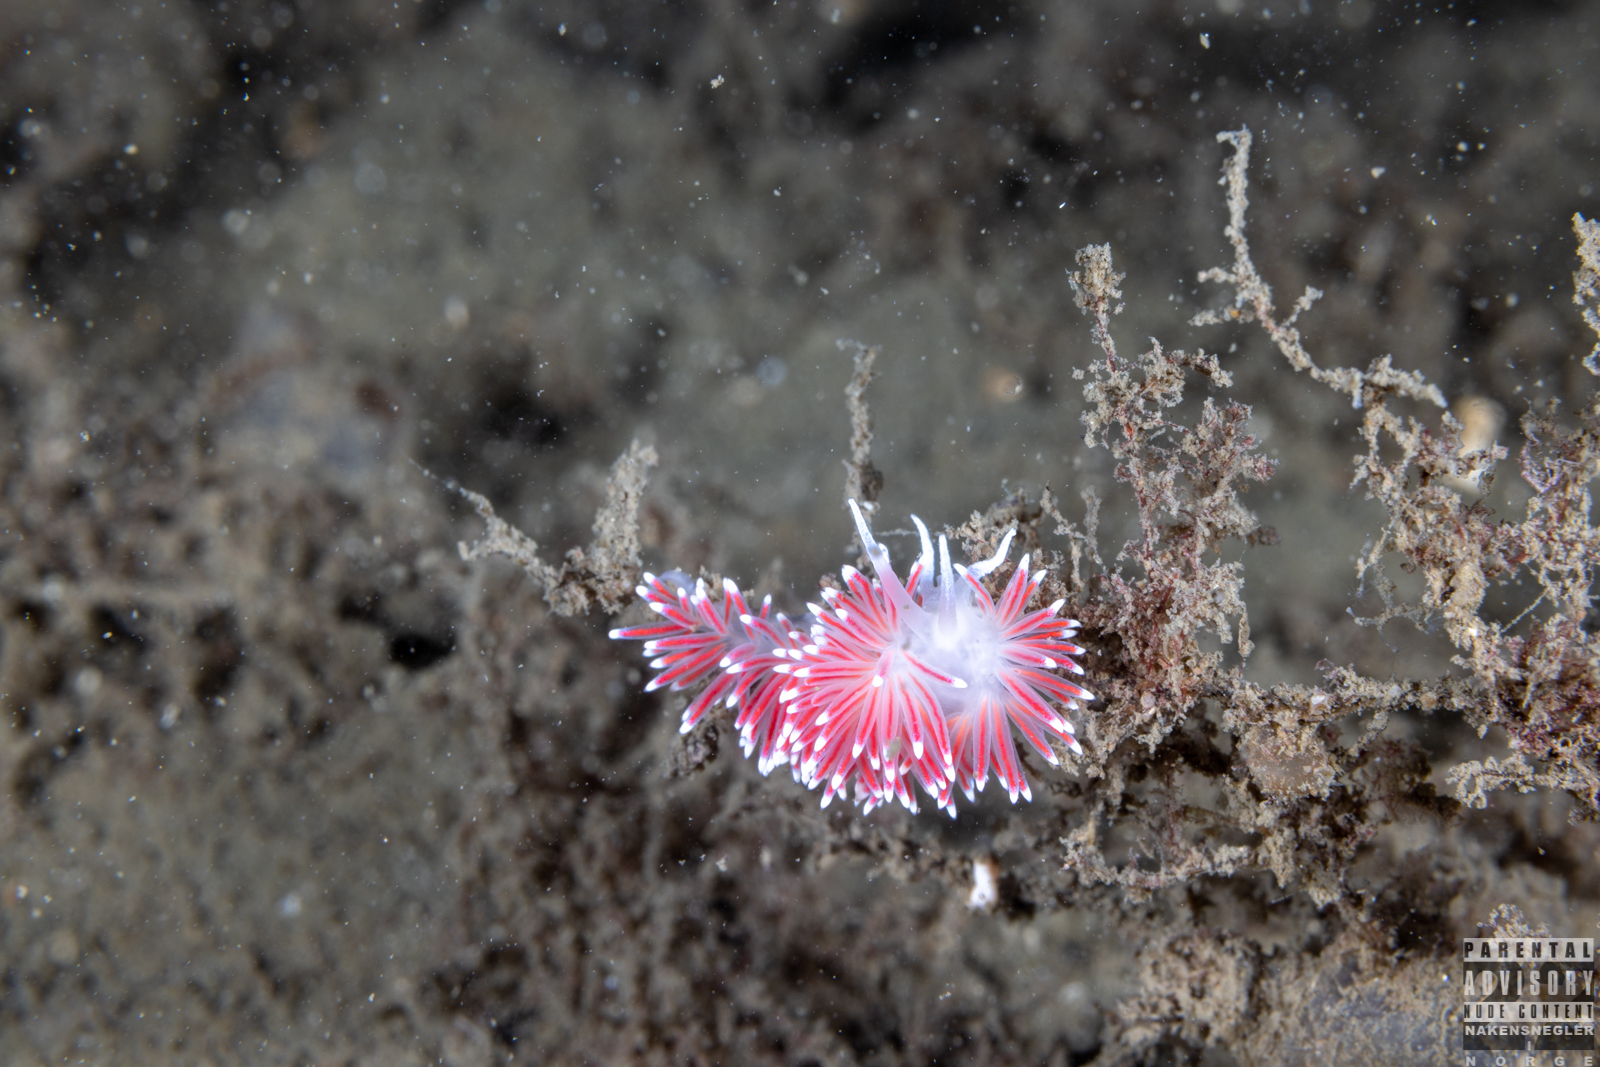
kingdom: Animalia
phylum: Mollusca
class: Gastropoda
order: Nudibranchia
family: Flabellinidae
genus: Carronella
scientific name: Carronella pellucida
